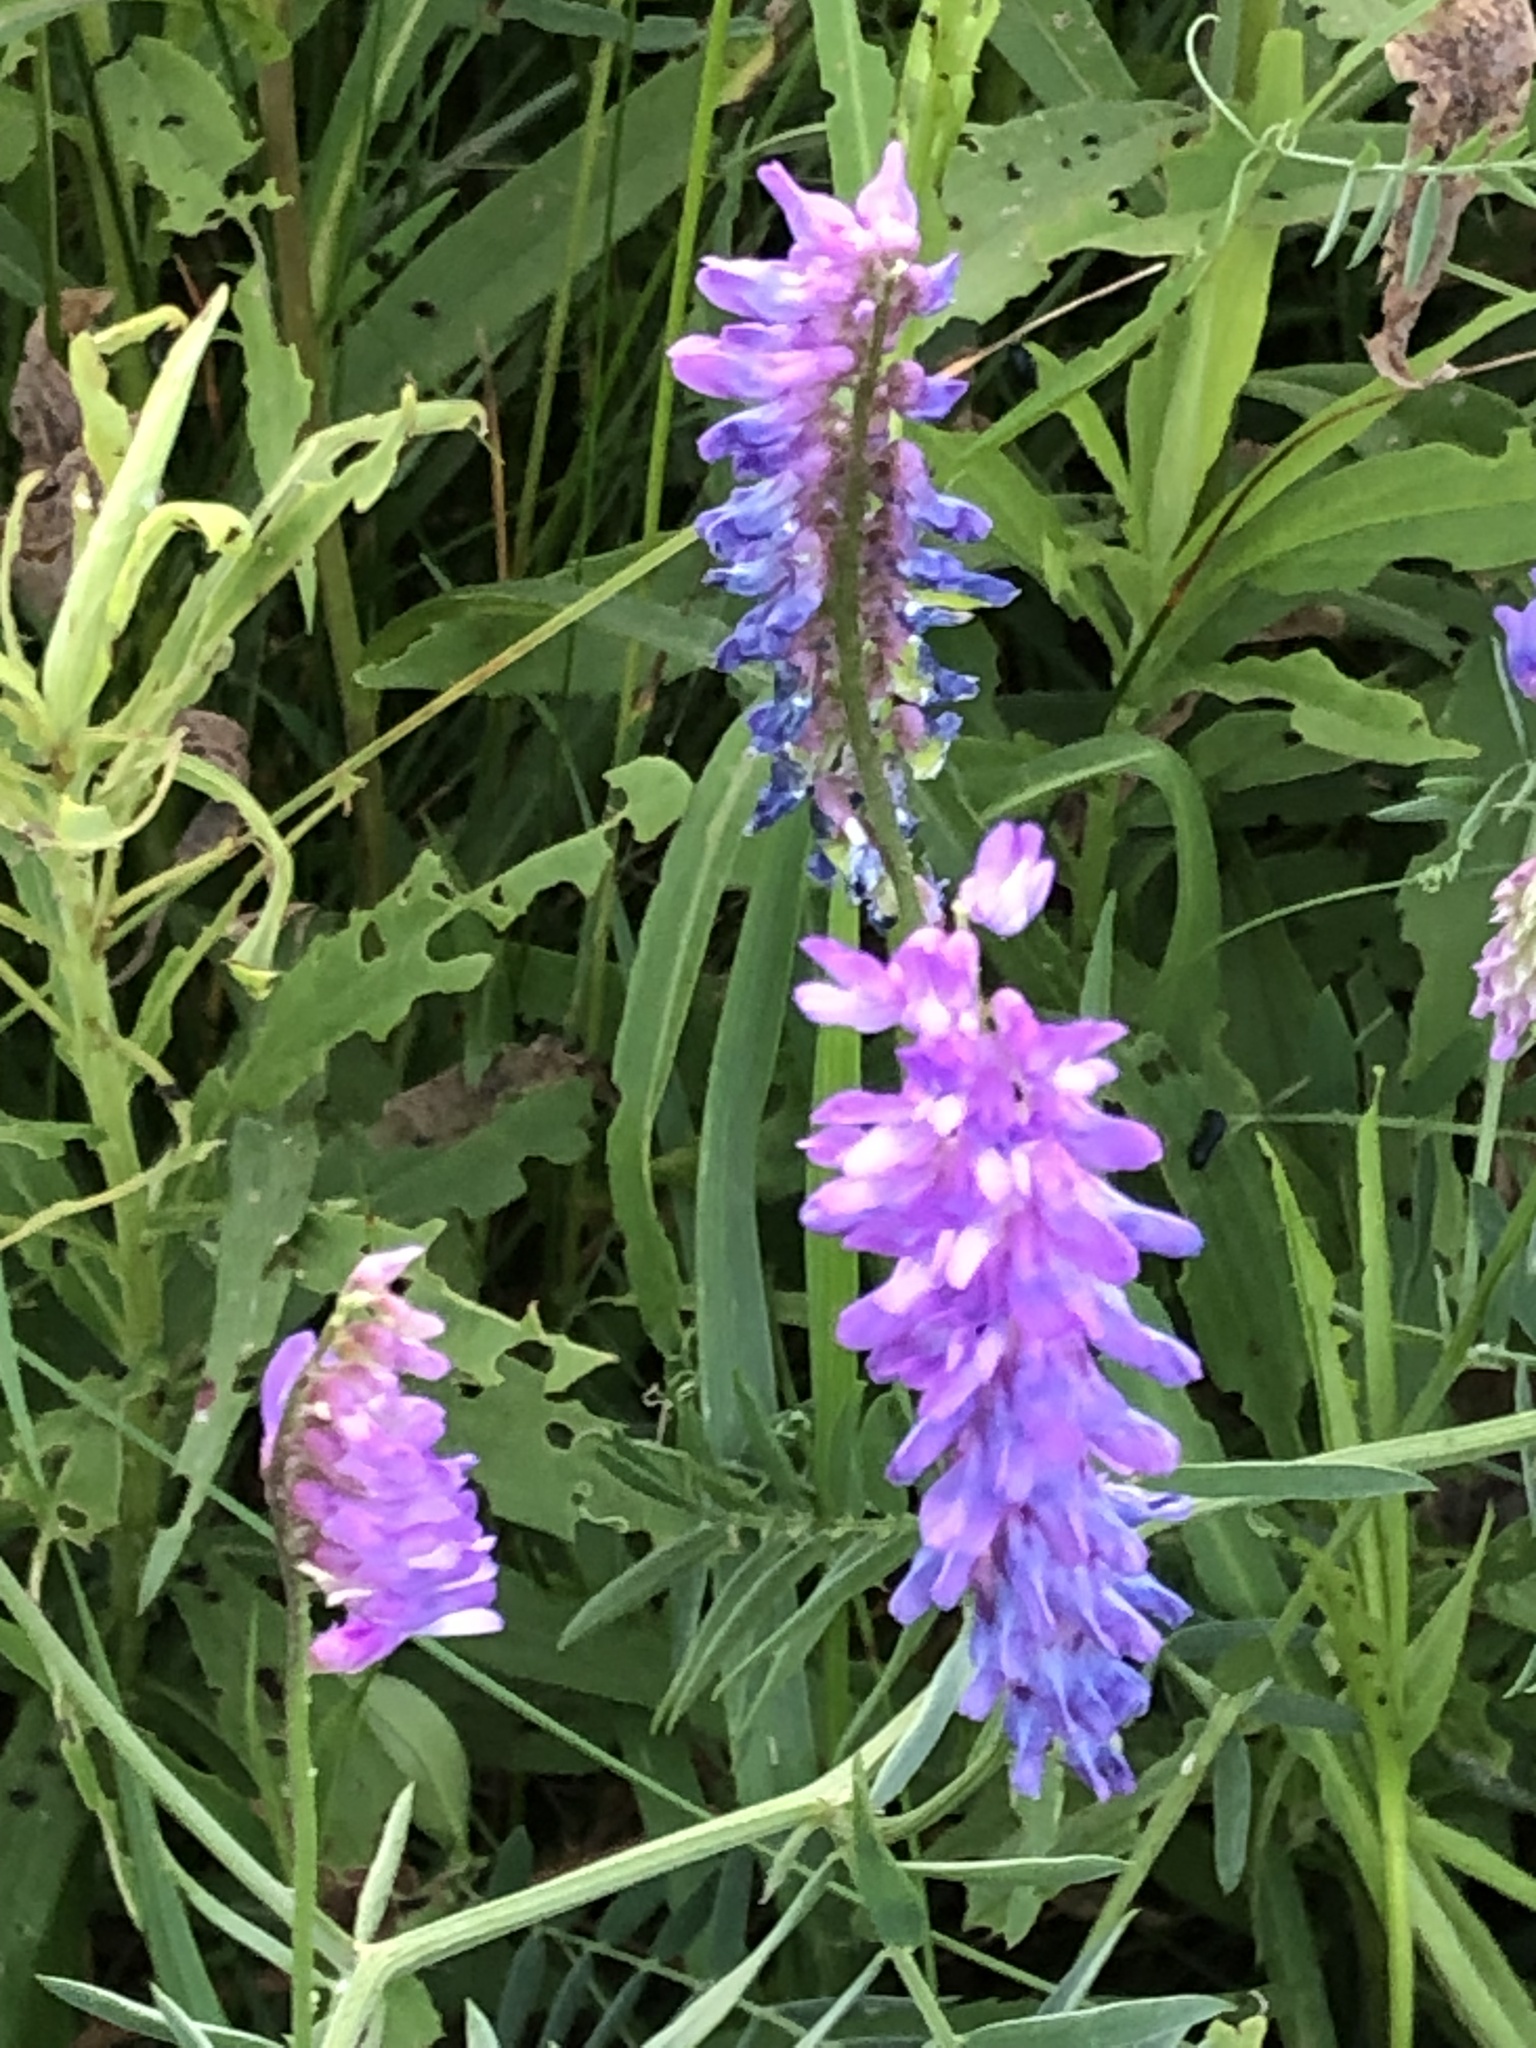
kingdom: Plantae
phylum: Tracheophyta
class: Magnoliopsida
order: Fabales
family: Fabaceae
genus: Vicia
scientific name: Vicia cracca
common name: Bird vetch
